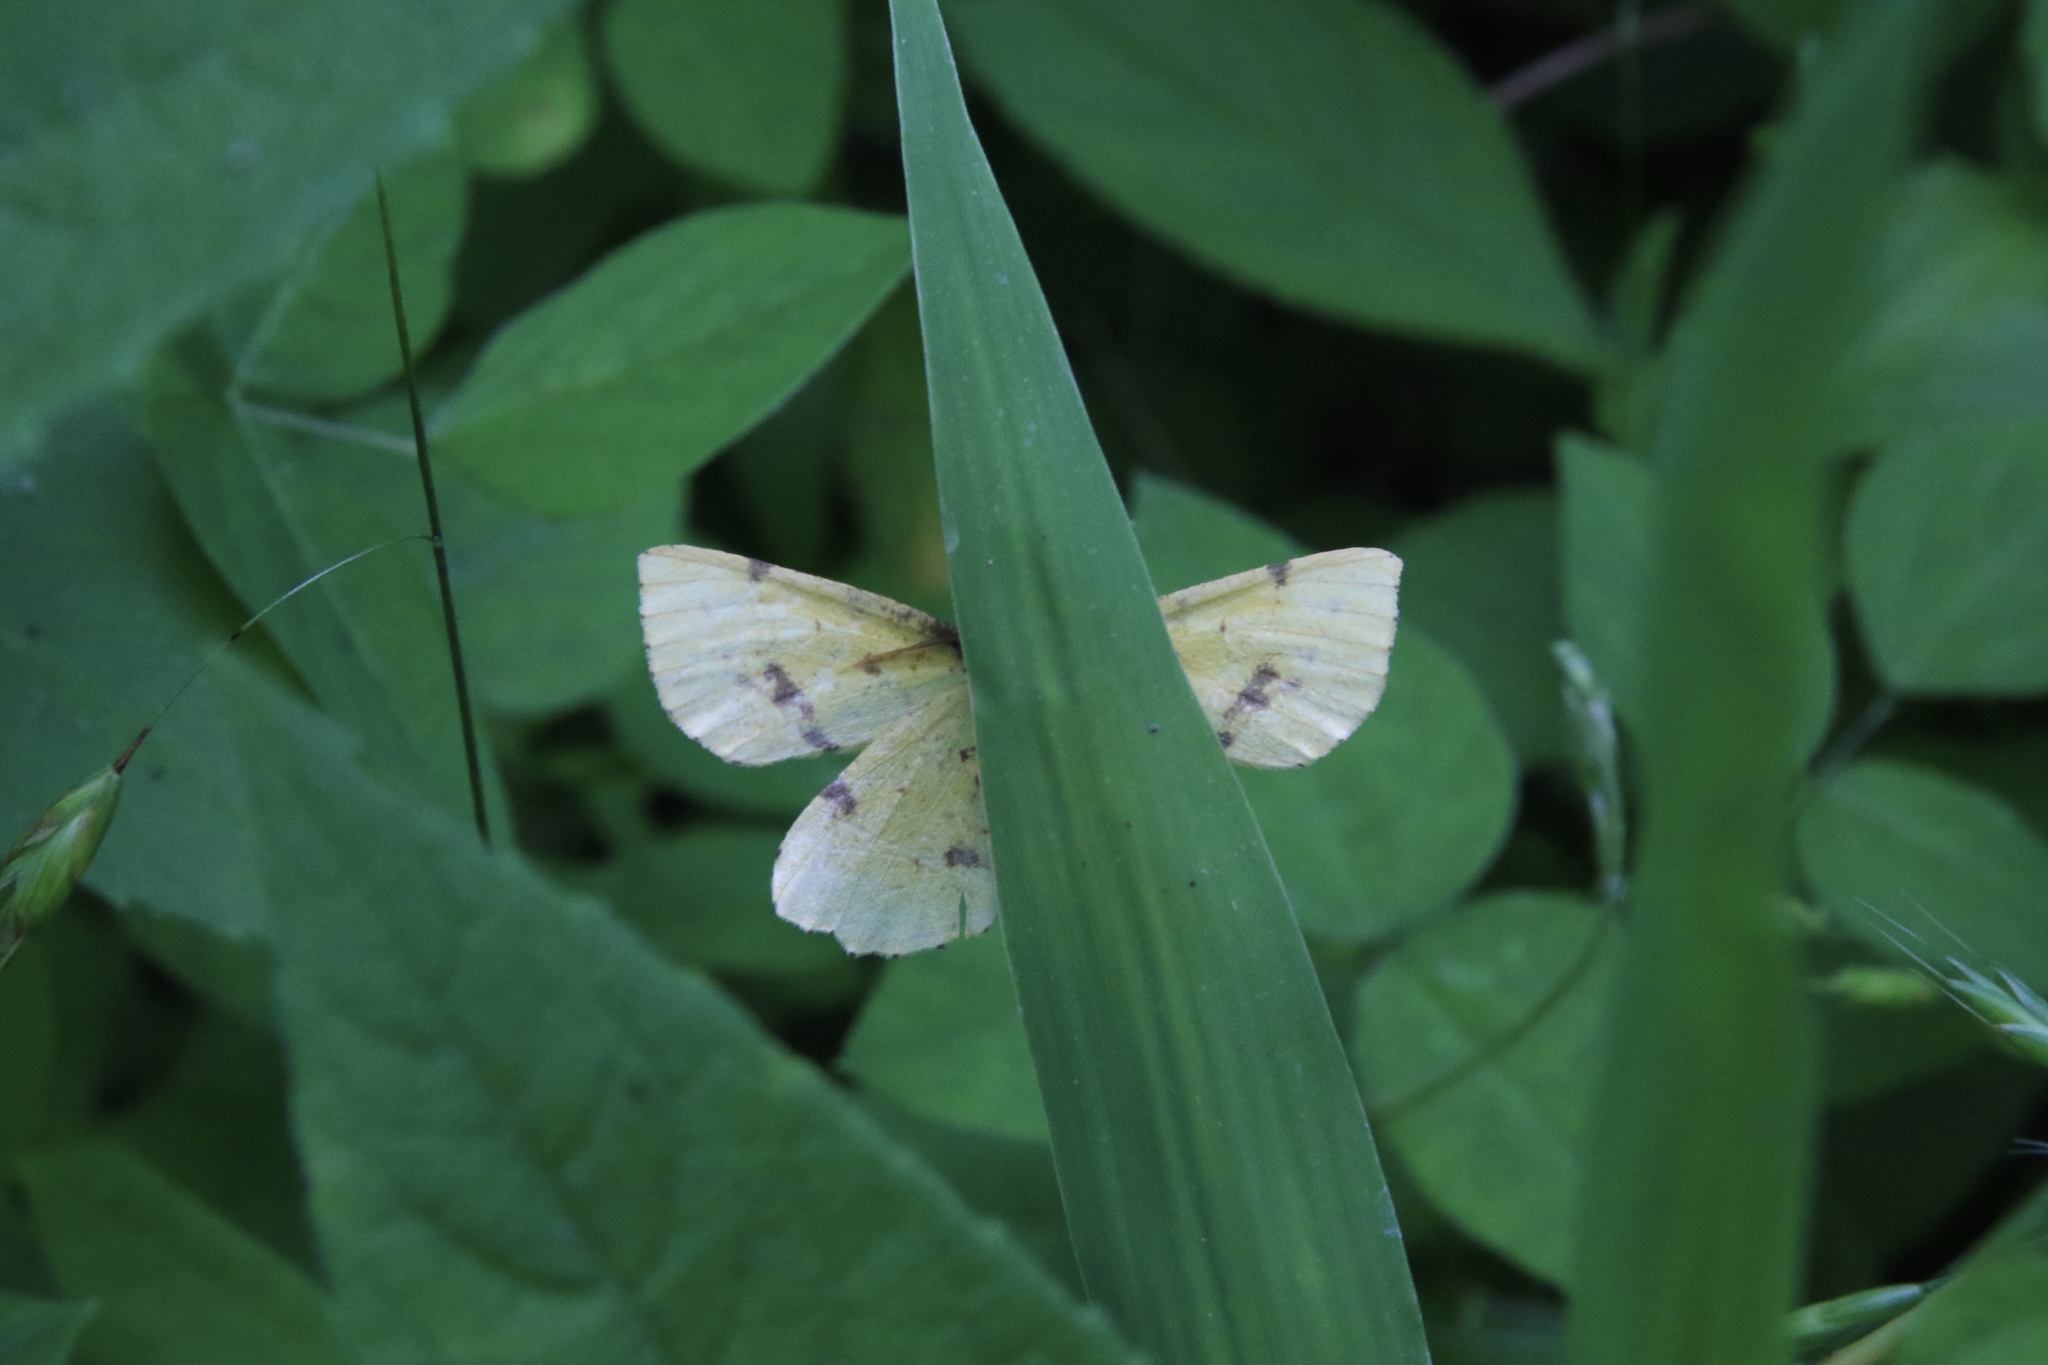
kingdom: Animalia
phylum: Arthropoda
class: Insecta
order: Lepidoptera
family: Geometridae
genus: Xanthotype
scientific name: Xanthotype
